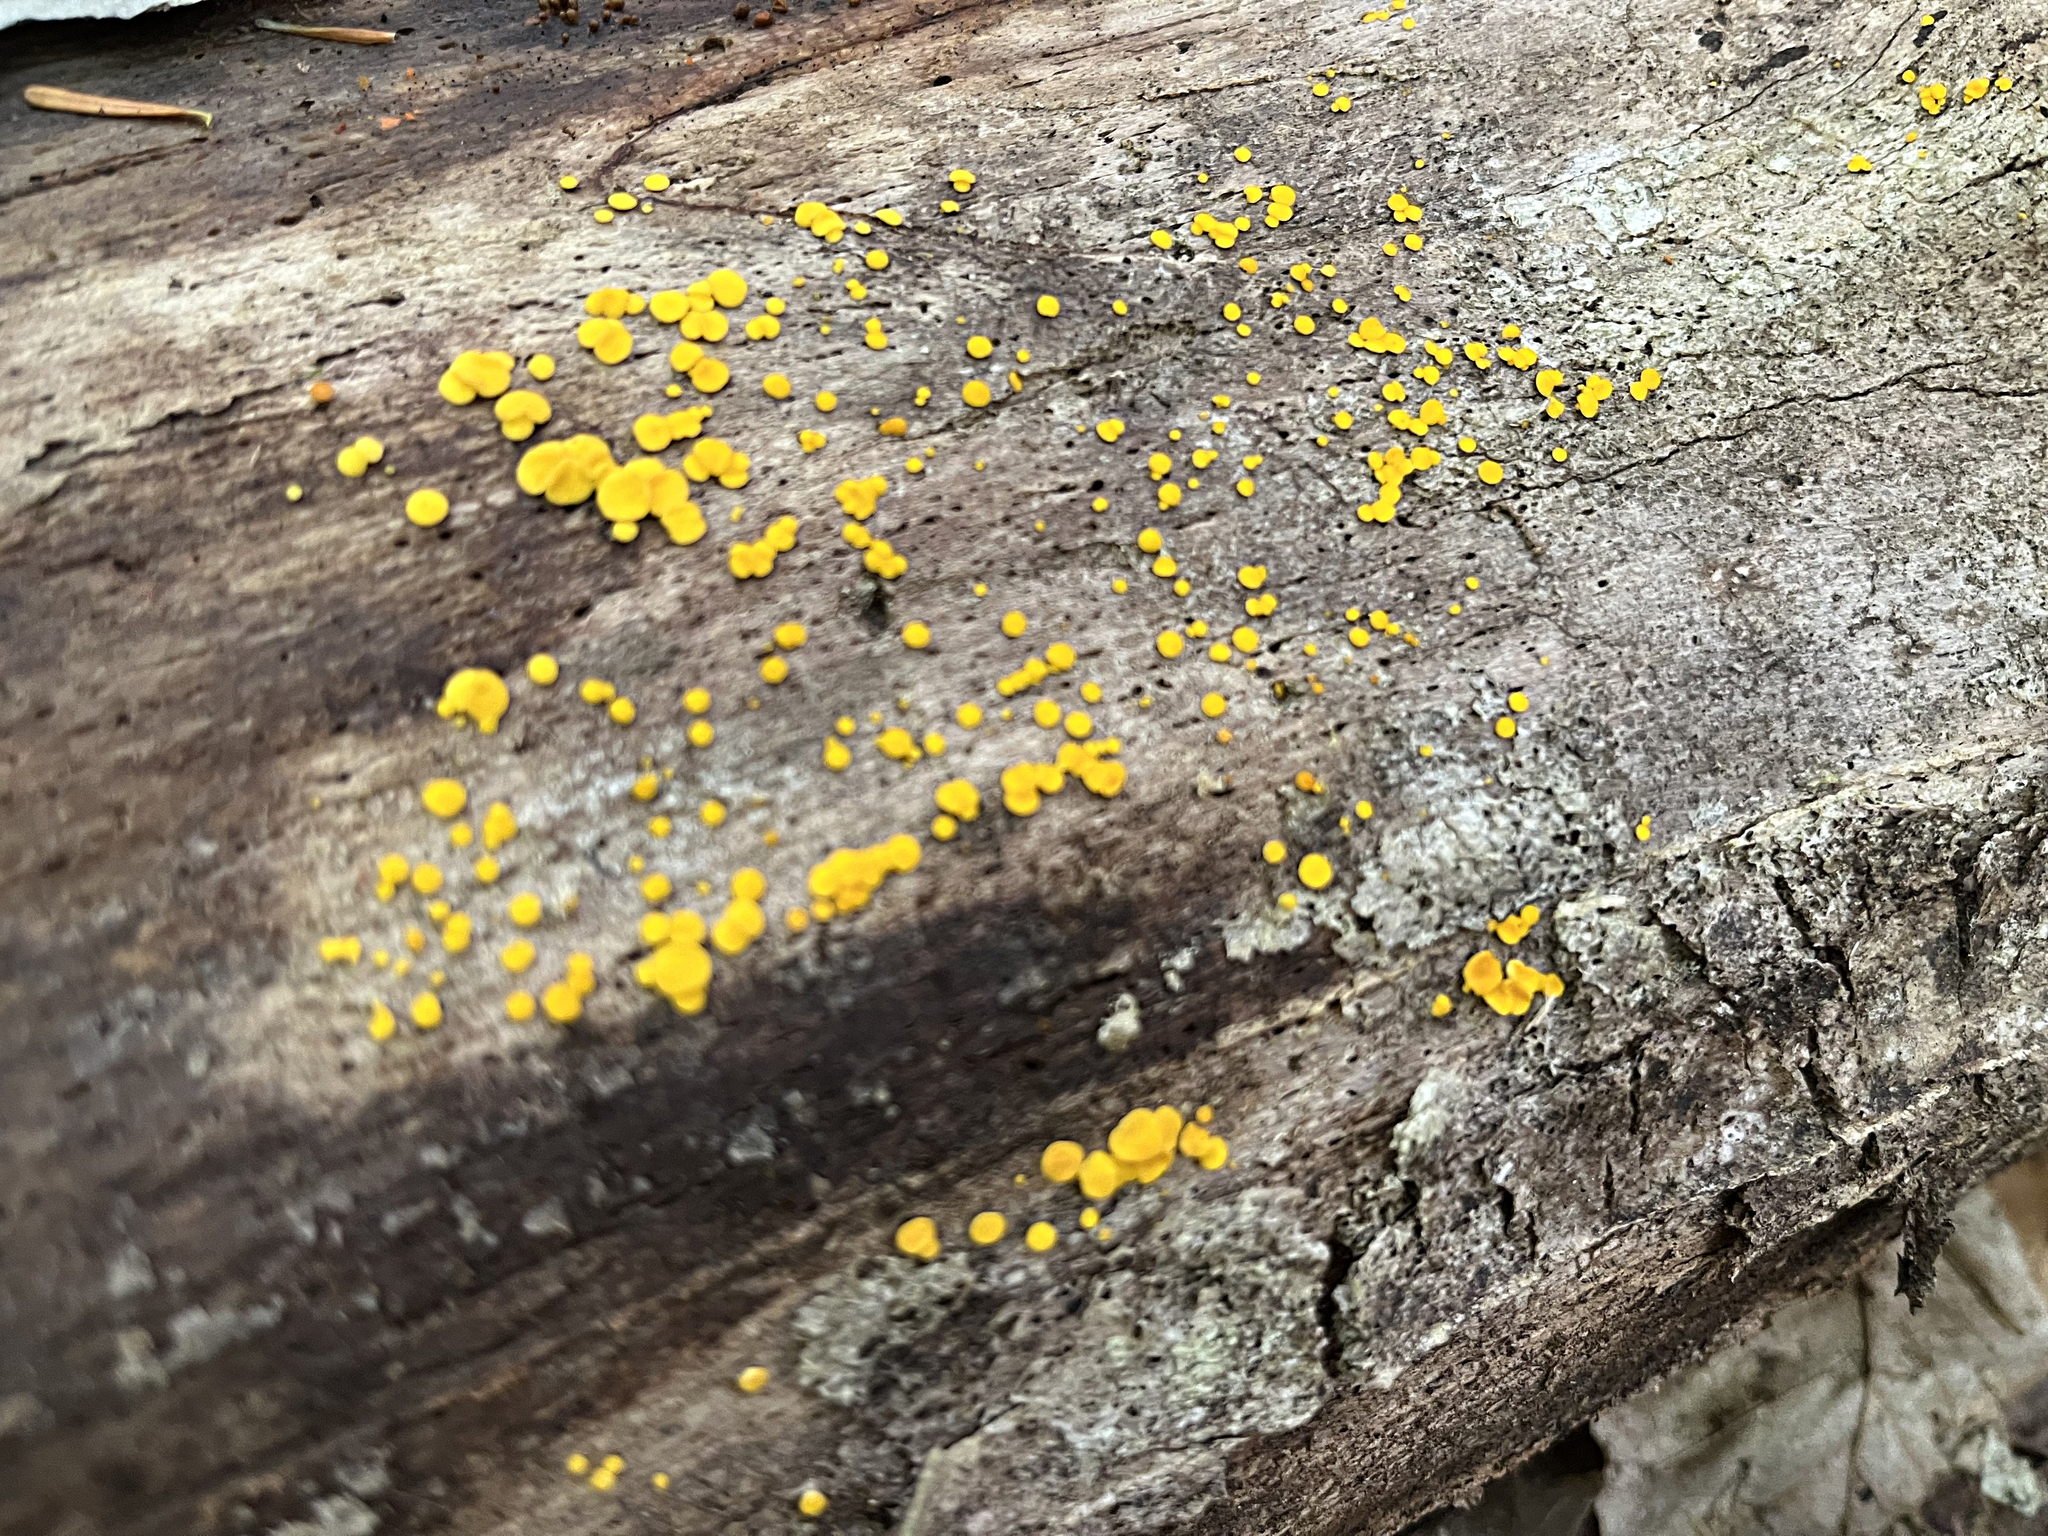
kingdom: Fungi
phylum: Ascomycota
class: Leotiomycetes
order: Helotiales
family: Pezizellaceae
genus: Calycina
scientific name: Calycina citrina
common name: Yellow fairy cups
